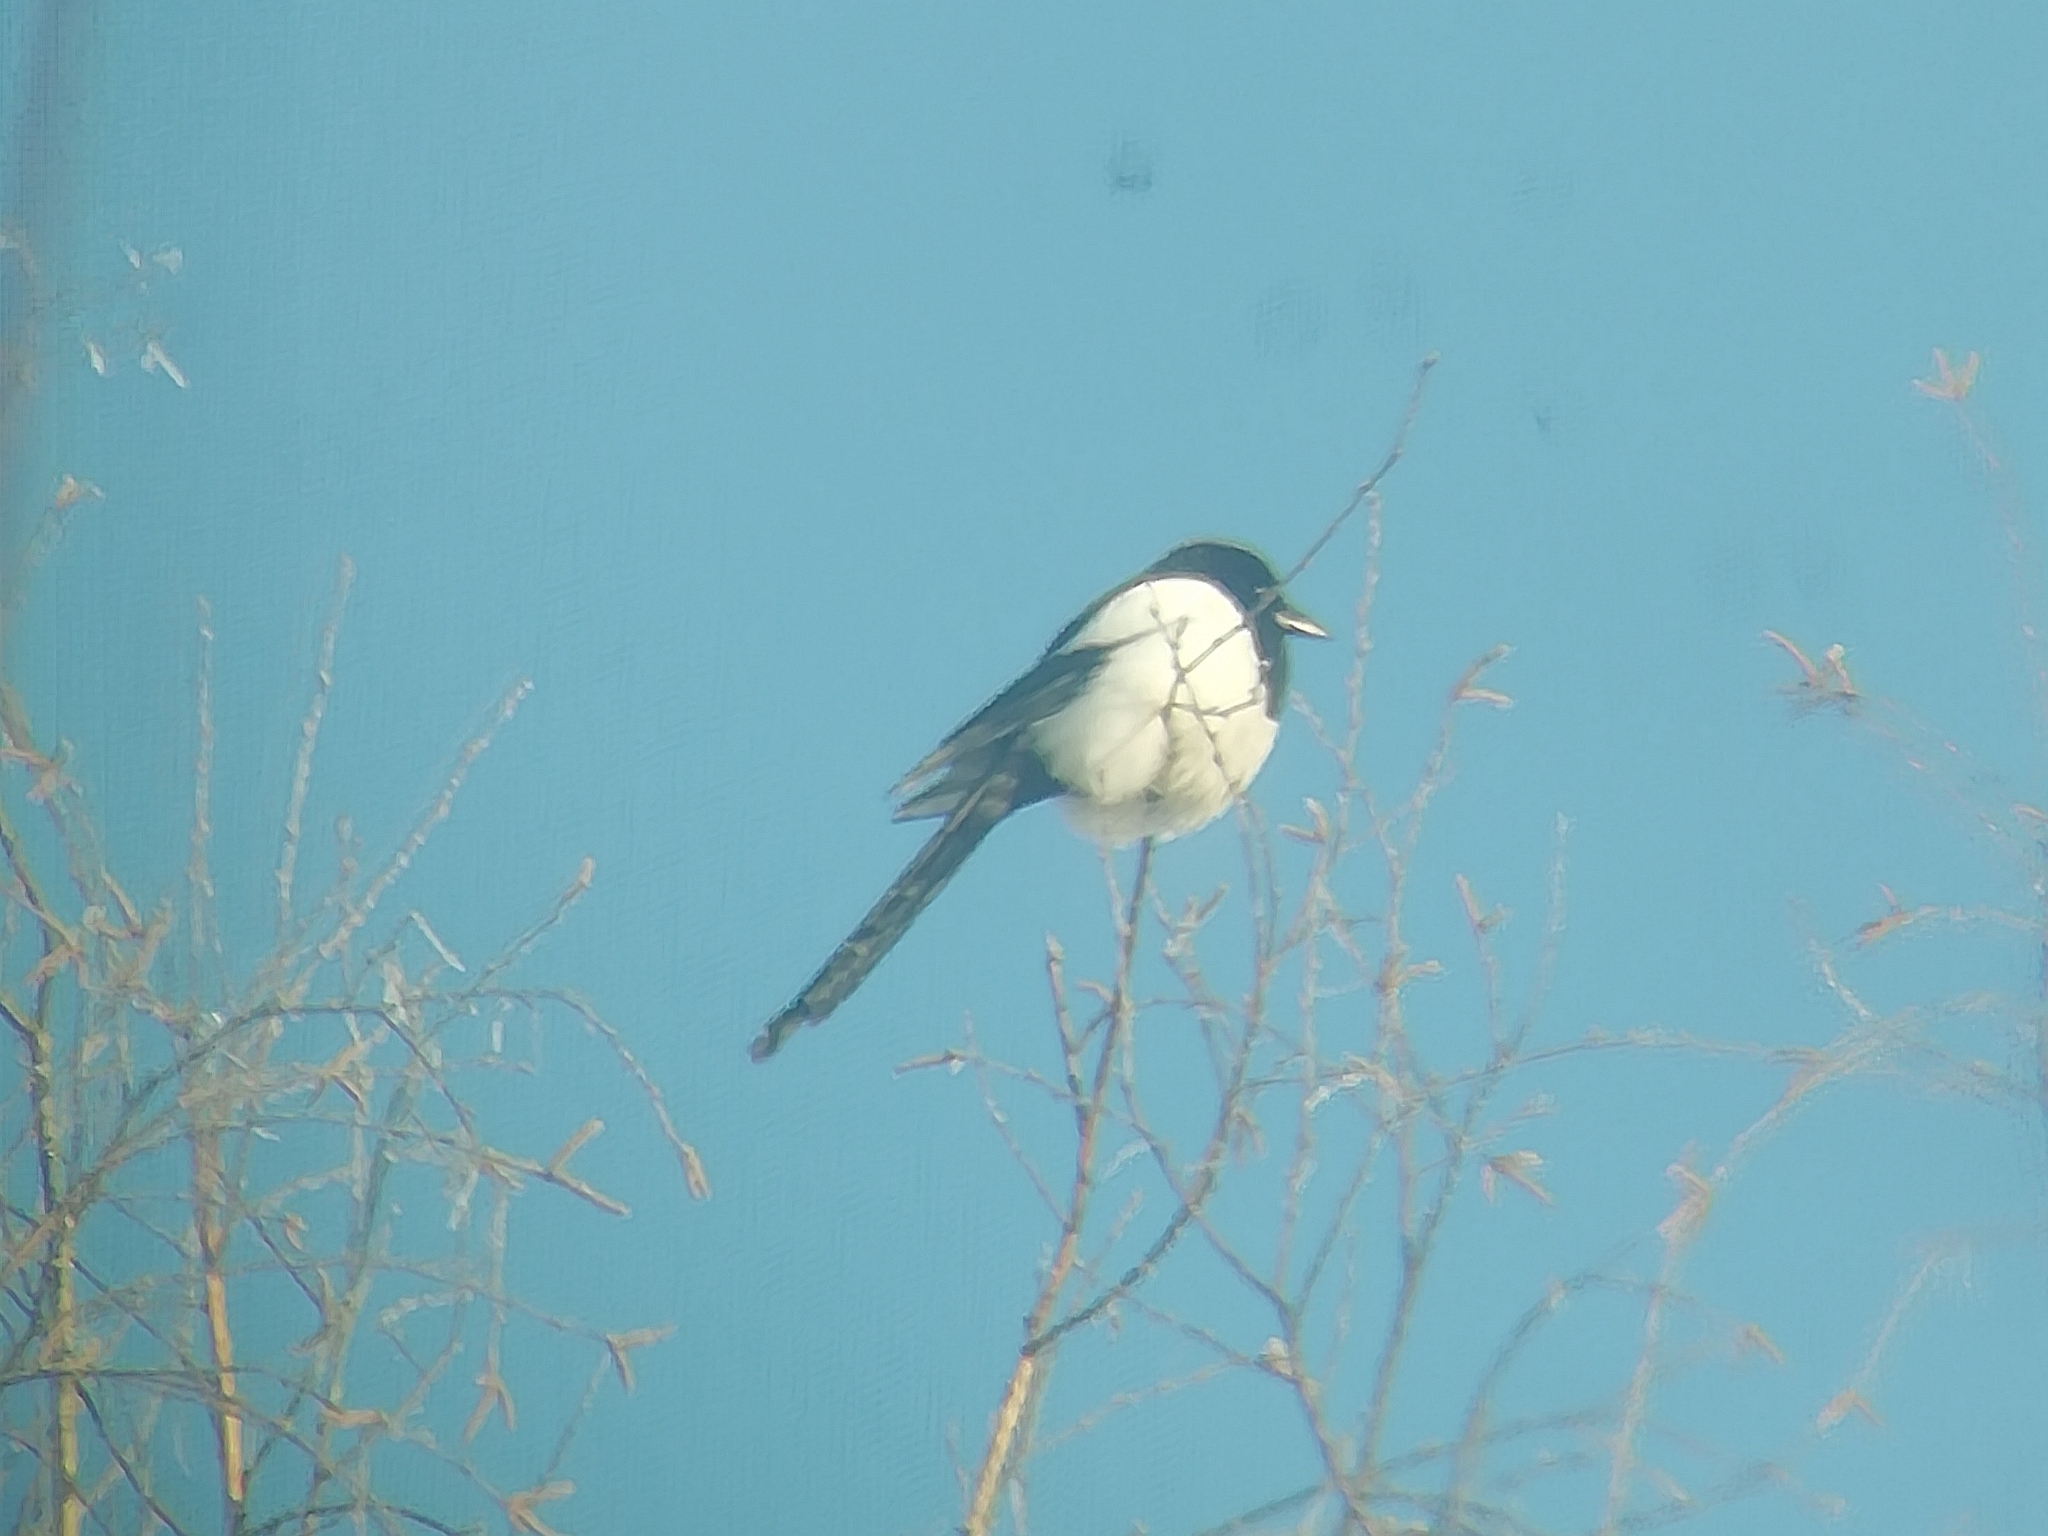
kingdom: Animalia
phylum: Chordata
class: Aves
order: Passeriformes
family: Corvidae
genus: Pica
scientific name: Pica pica
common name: Eurasian magpie
